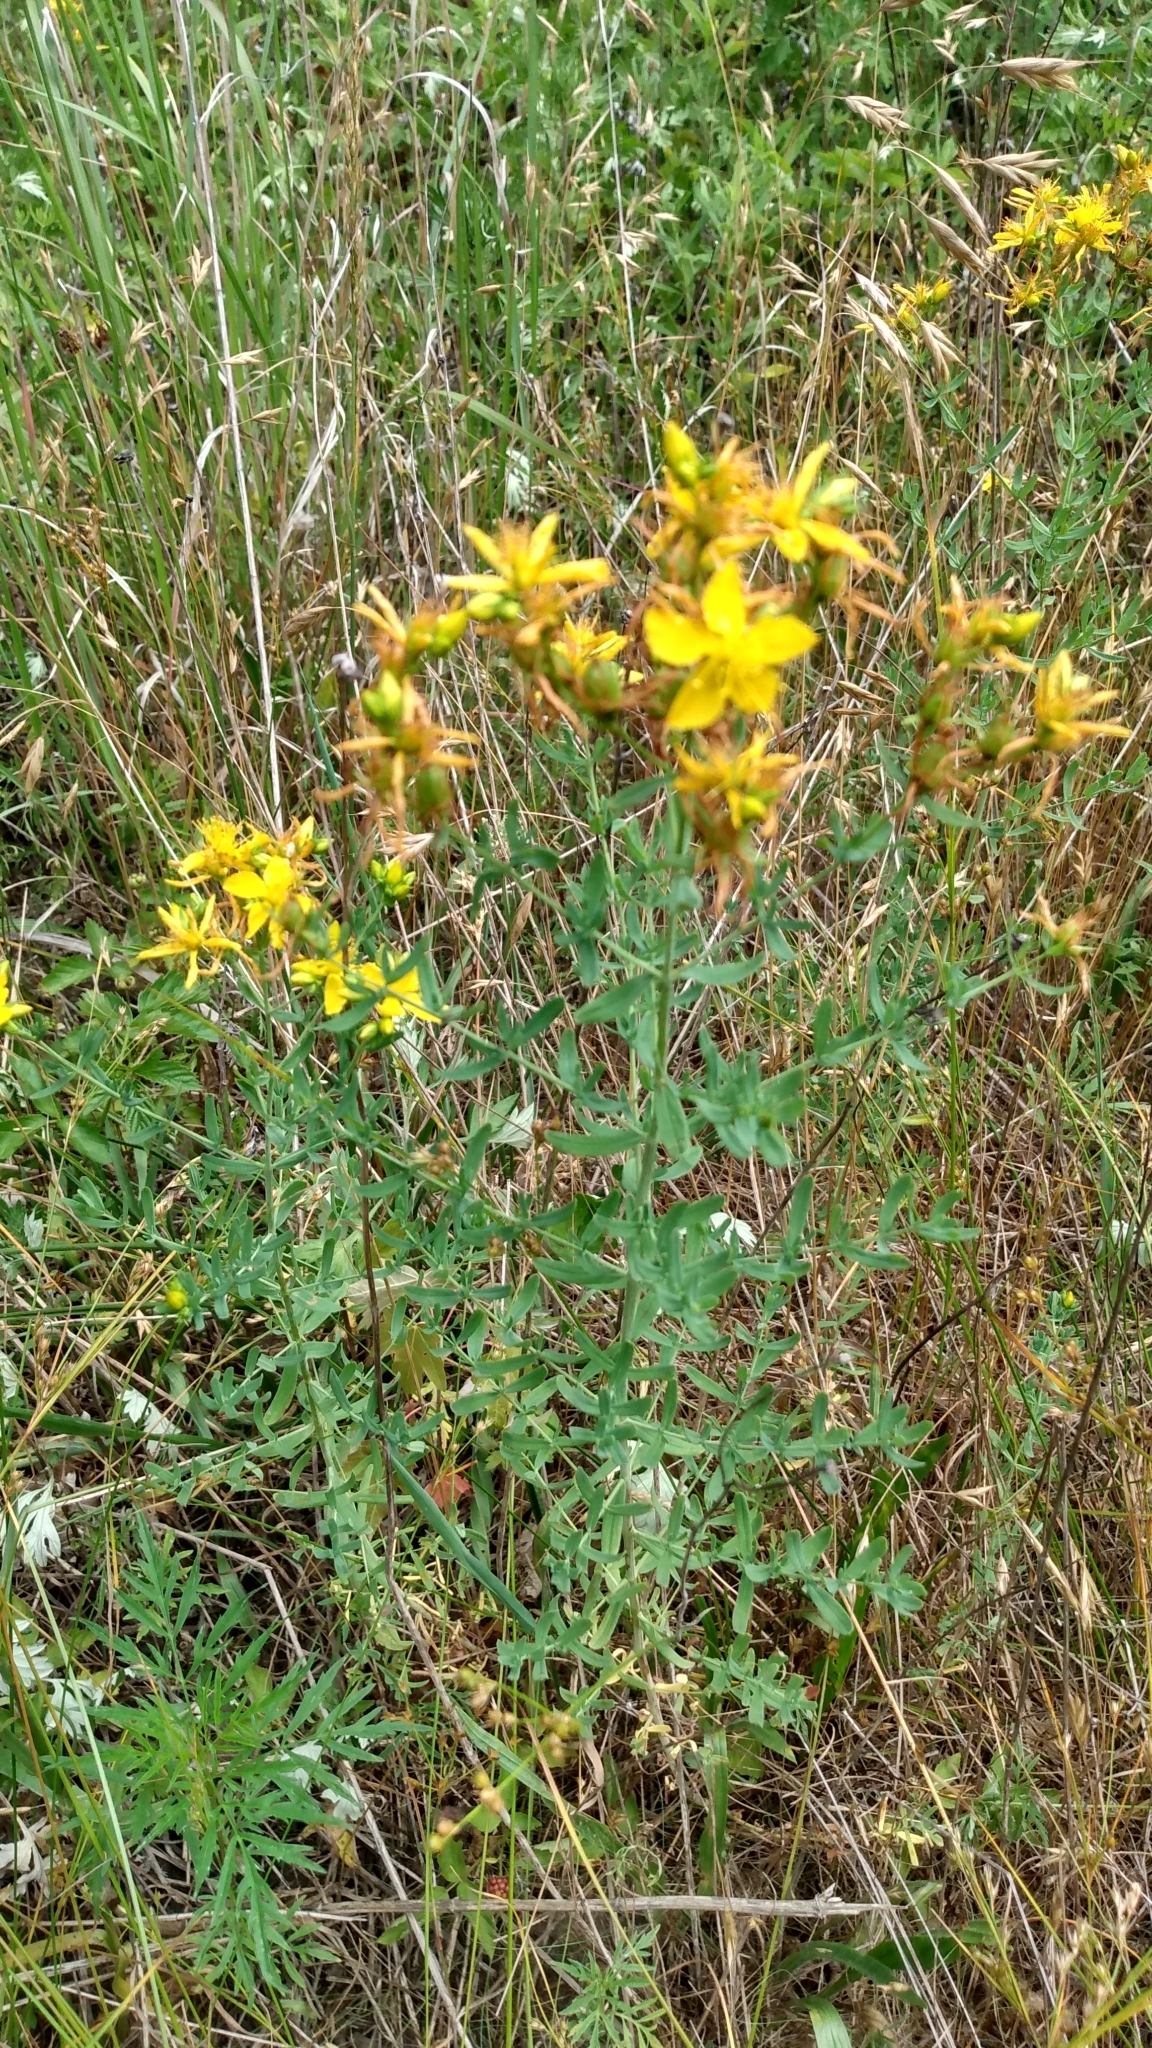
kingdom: Plantae
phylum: Tracheophyta
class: Magnoliopsida
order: Malpighiales
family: Hypericaceae
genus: Hypericum
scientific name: Hypericum perforatum
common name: Common st. johnswort
